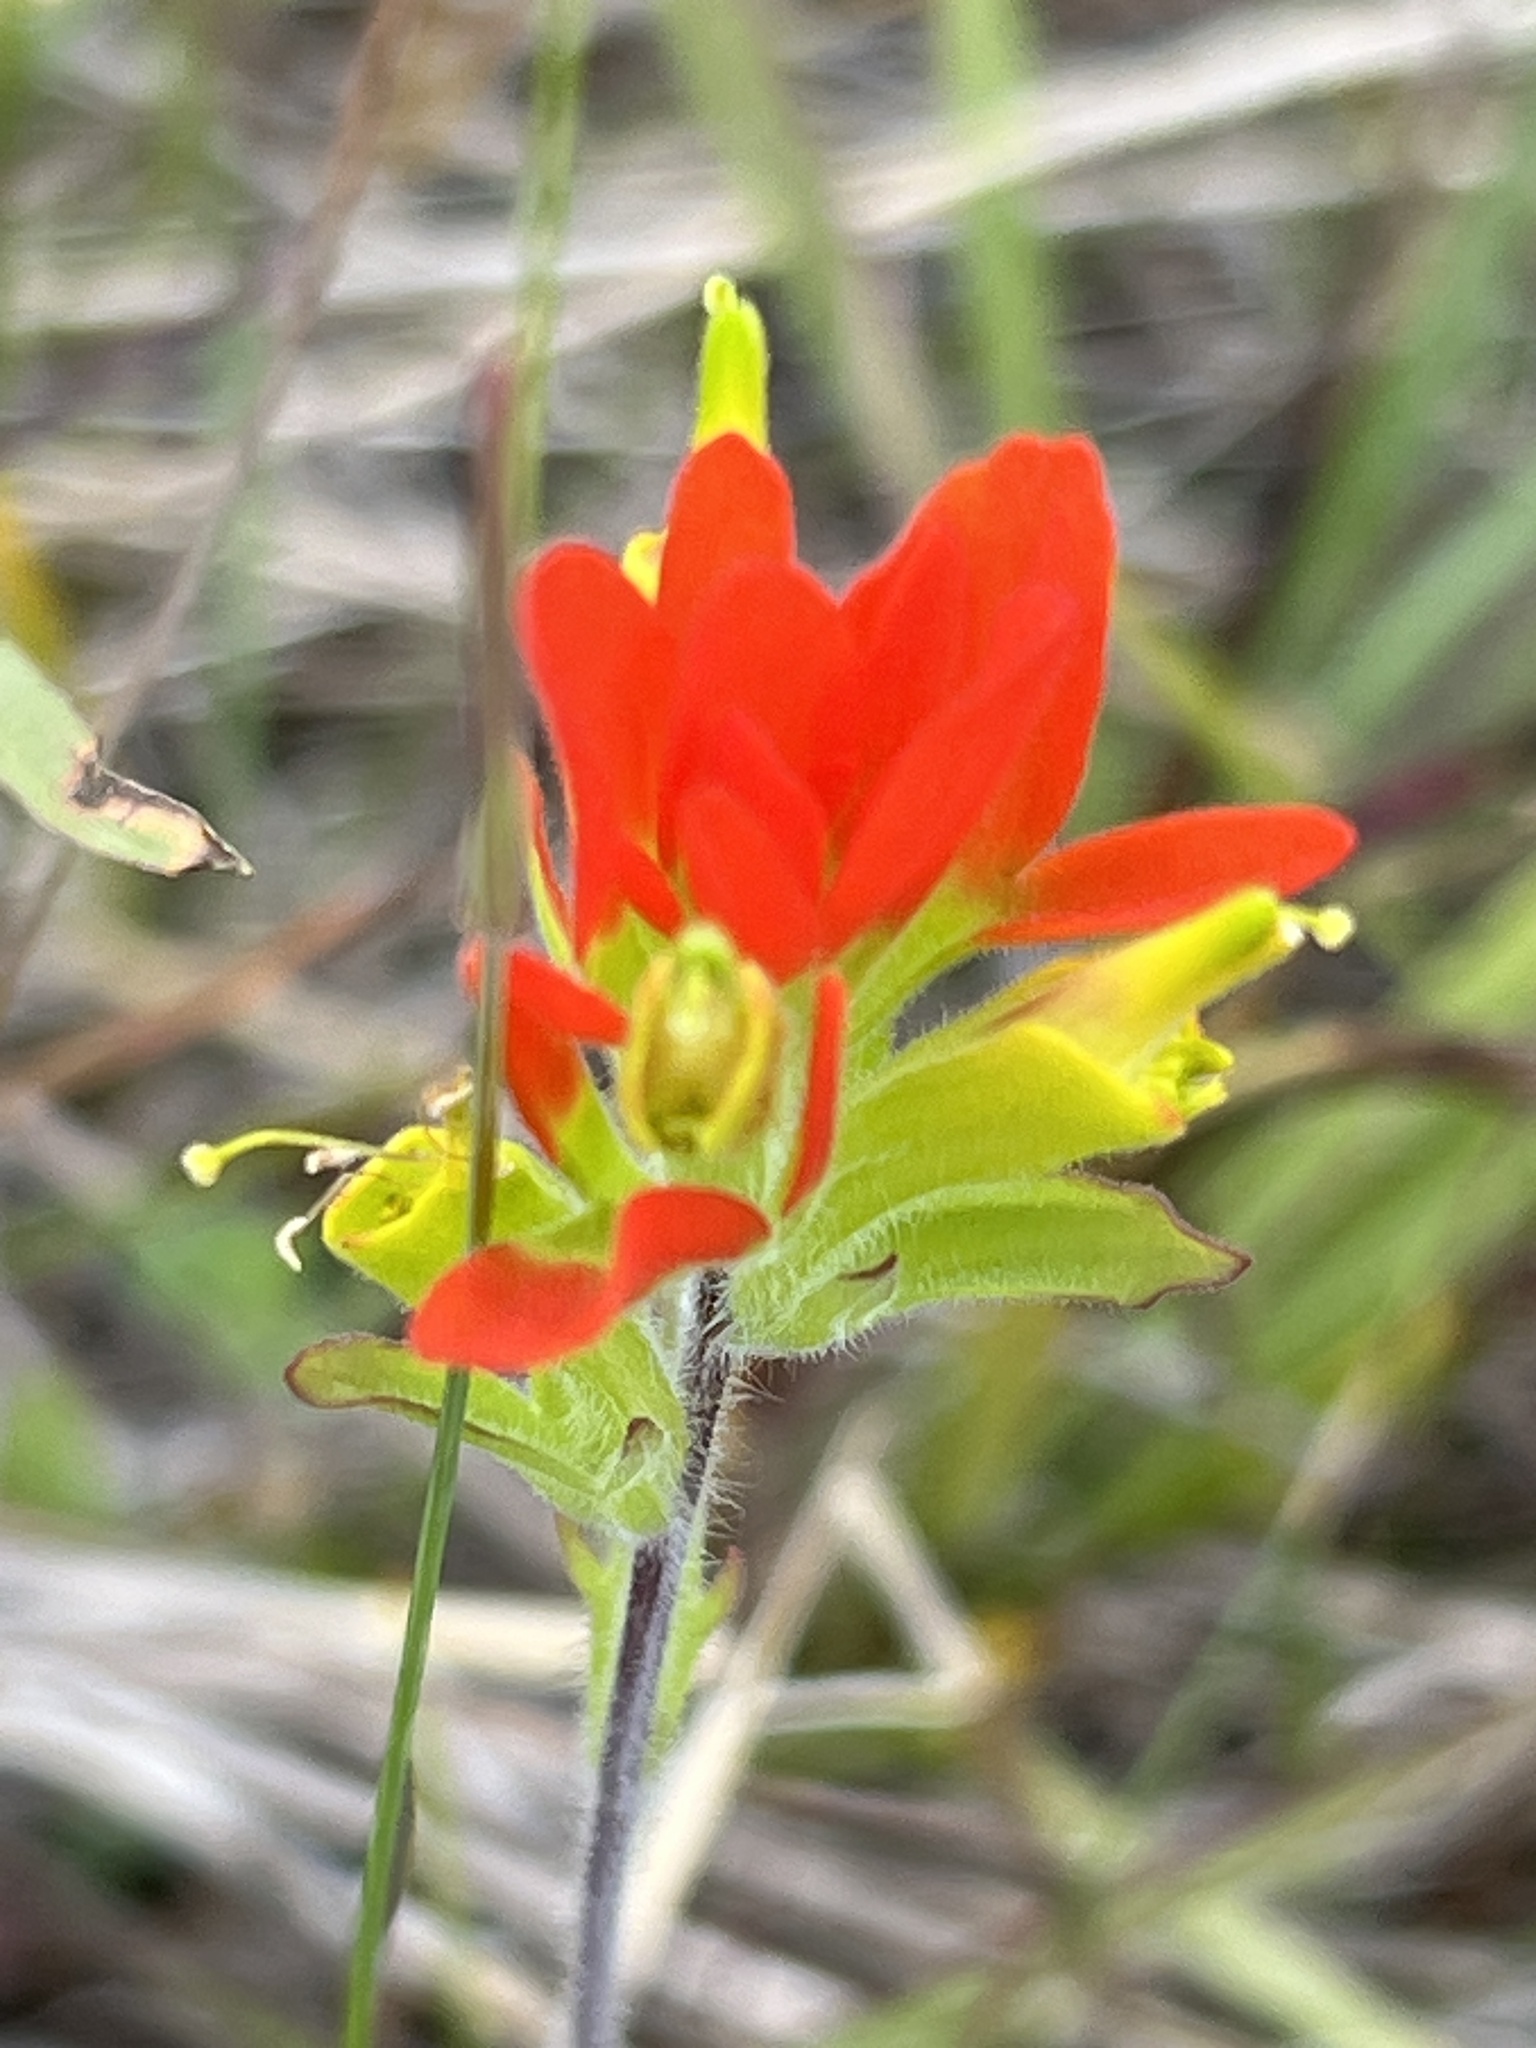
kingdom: Plantae
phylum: Tracheophyta
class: Magnoliopsida
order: Lamiales
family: Orobanchaceae
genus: Castilleja
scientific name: Castilleja coccinea
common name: Scarlet paintbrush
